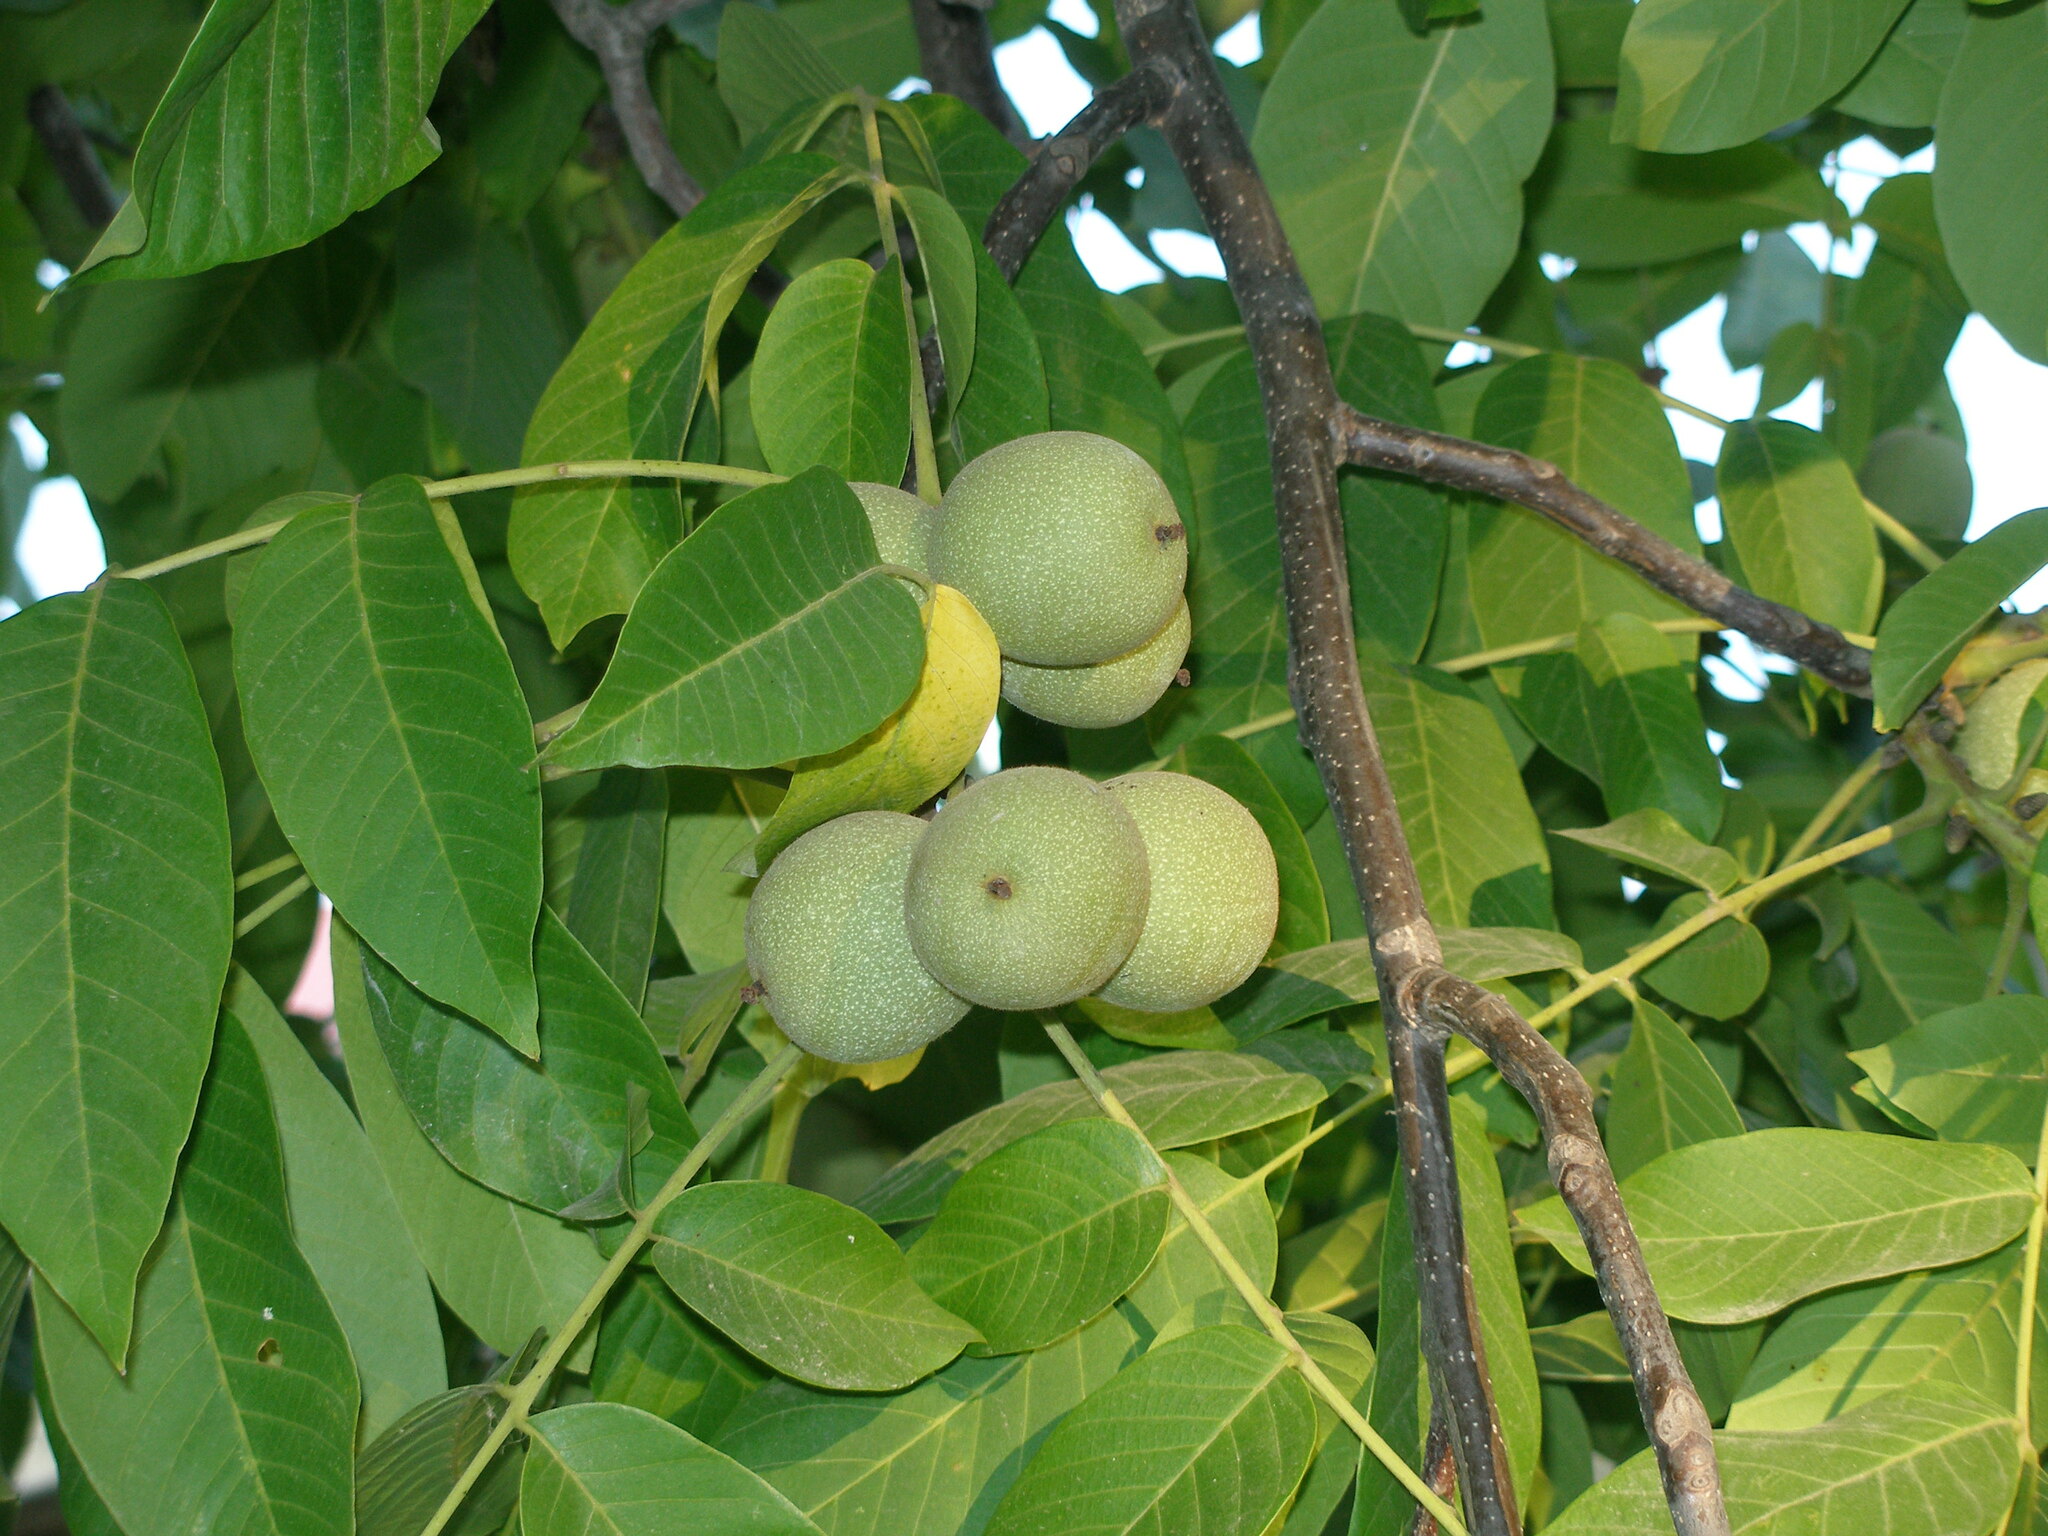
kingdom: Plantae
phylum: Tracheophyta
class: Magnoliopsida
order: Fagales
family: Juglandaceae
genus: Juglans
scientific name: Juglans regia
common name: Walnut
